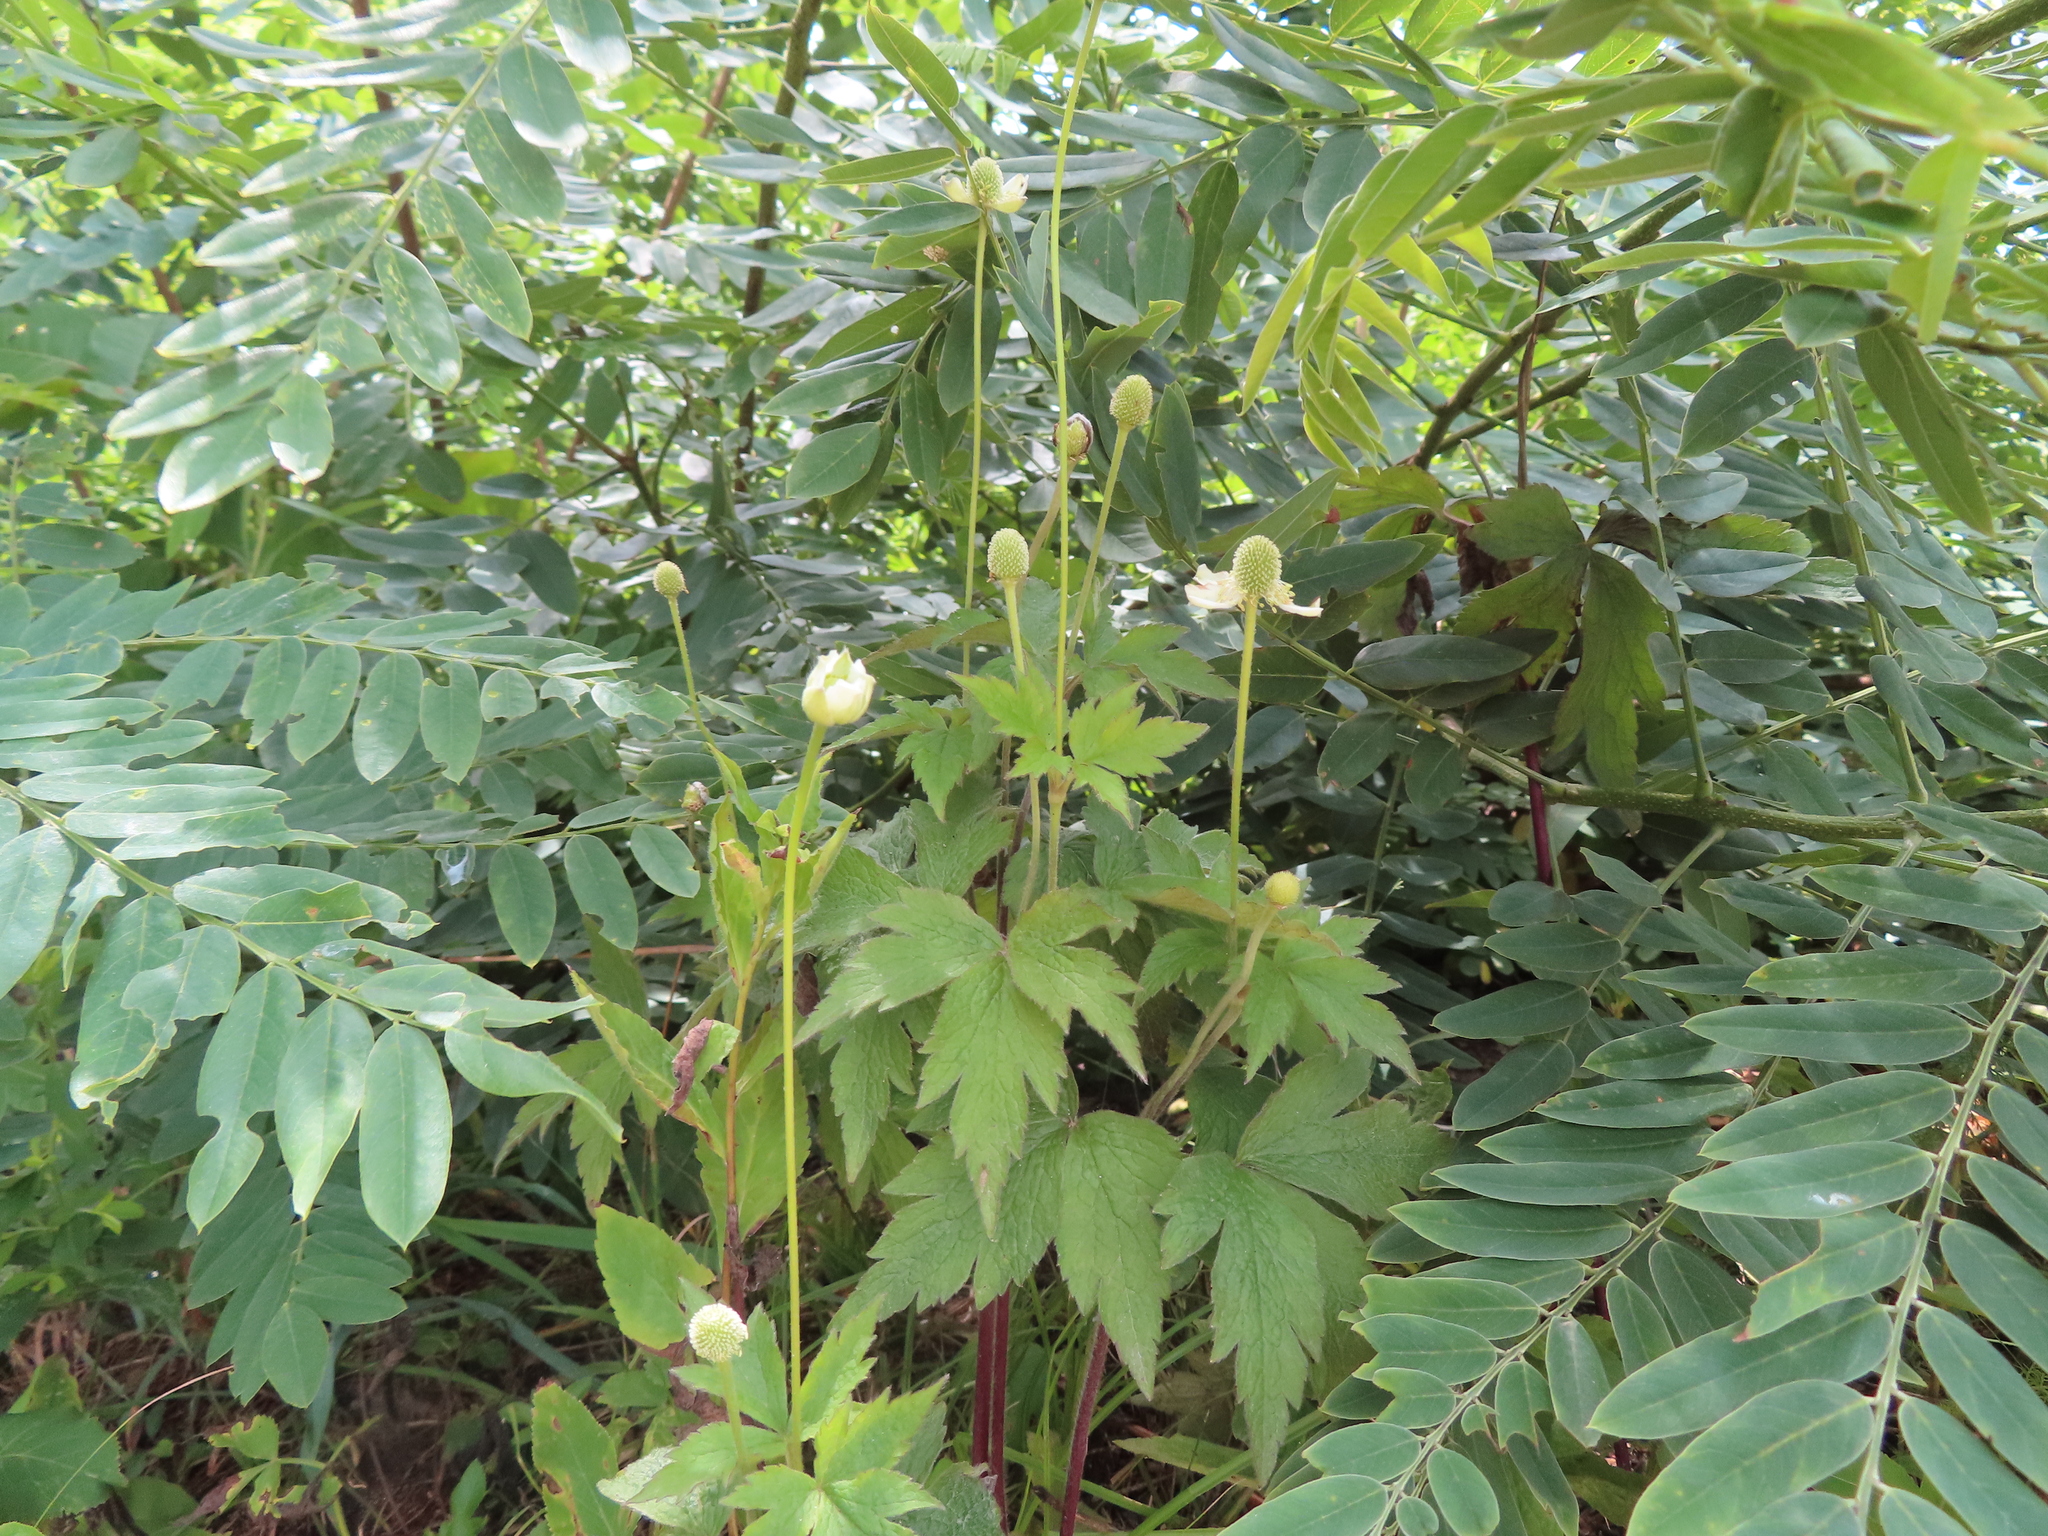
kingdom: Plantae
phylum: Tracheophyta
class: Magnoliopsida
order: Ranunculales
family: Ranunculaceae
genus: Anemone
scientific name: Anemone virginiana
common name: Tall anemone
